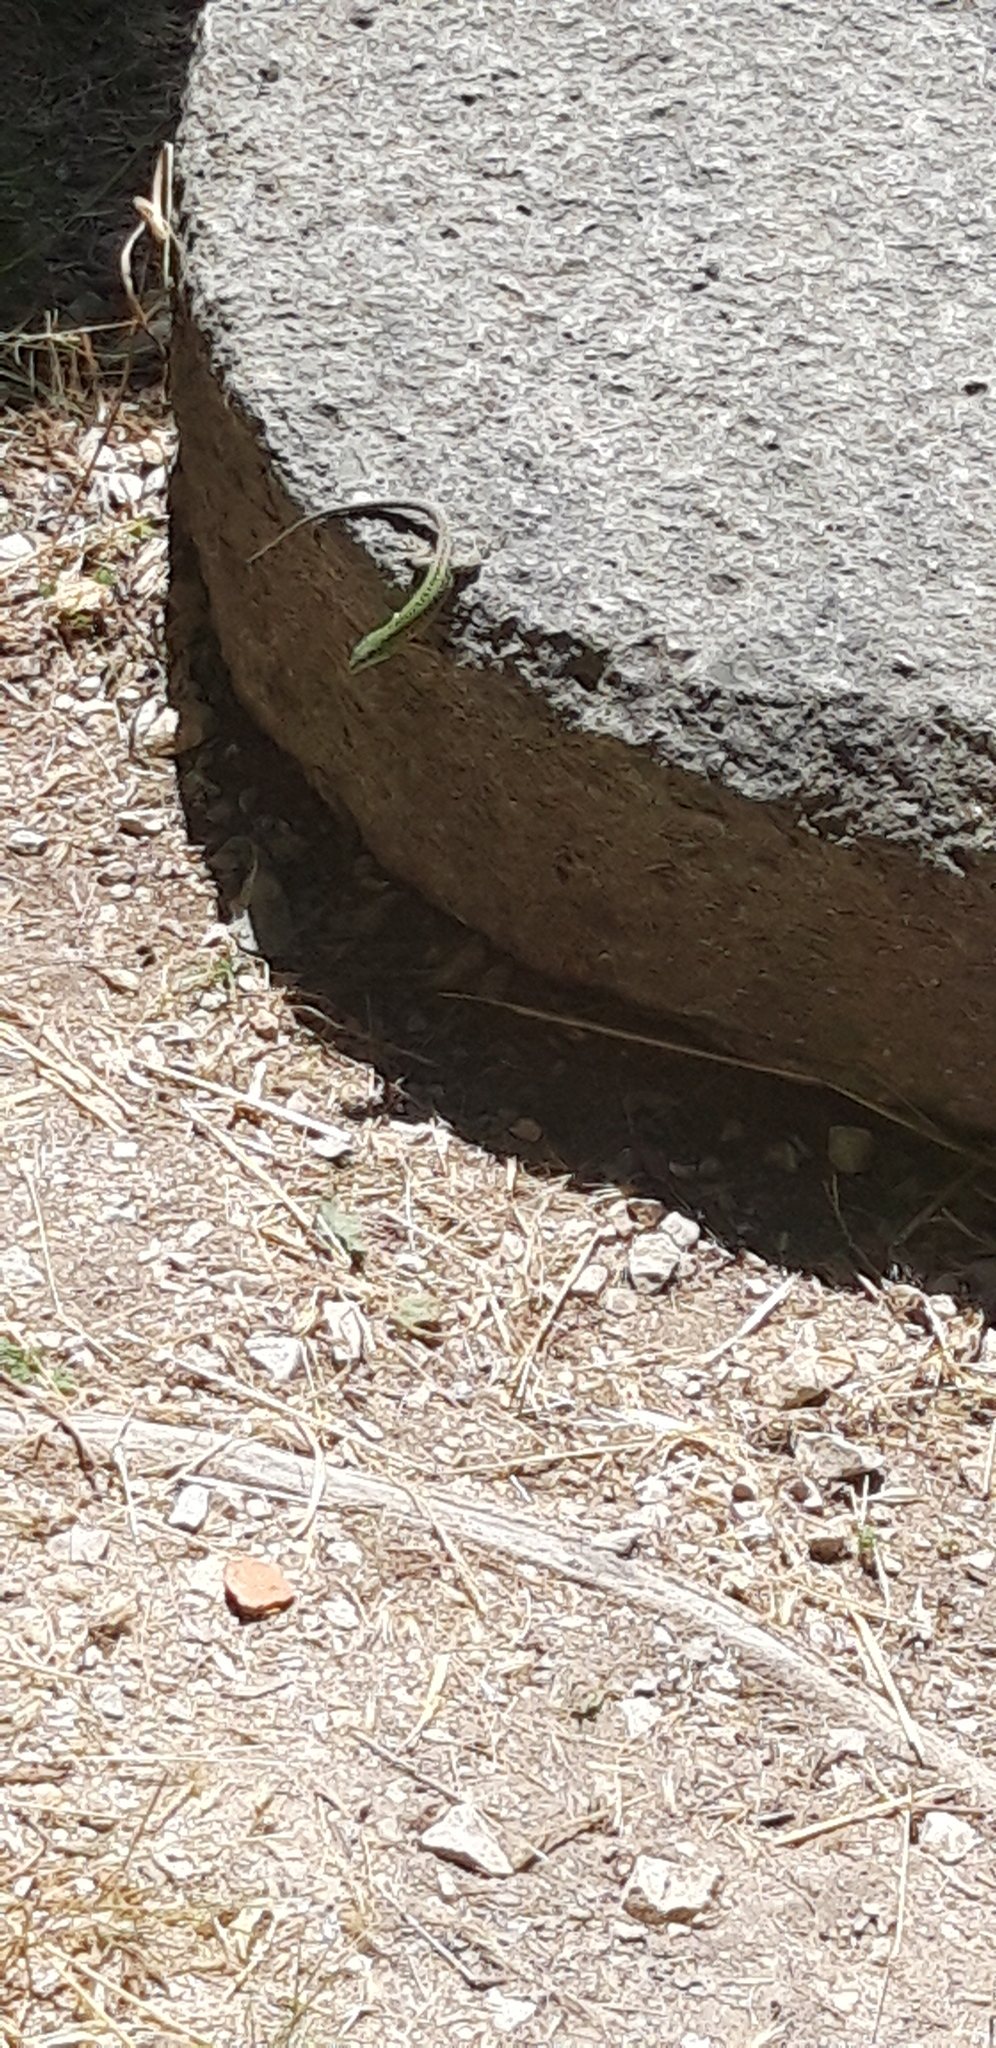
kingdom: Animalia
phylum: Chordata
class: Squamata
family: Lacertidae
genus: Podarcis
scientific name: Podarcis siculus
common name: Italian wall lizard
